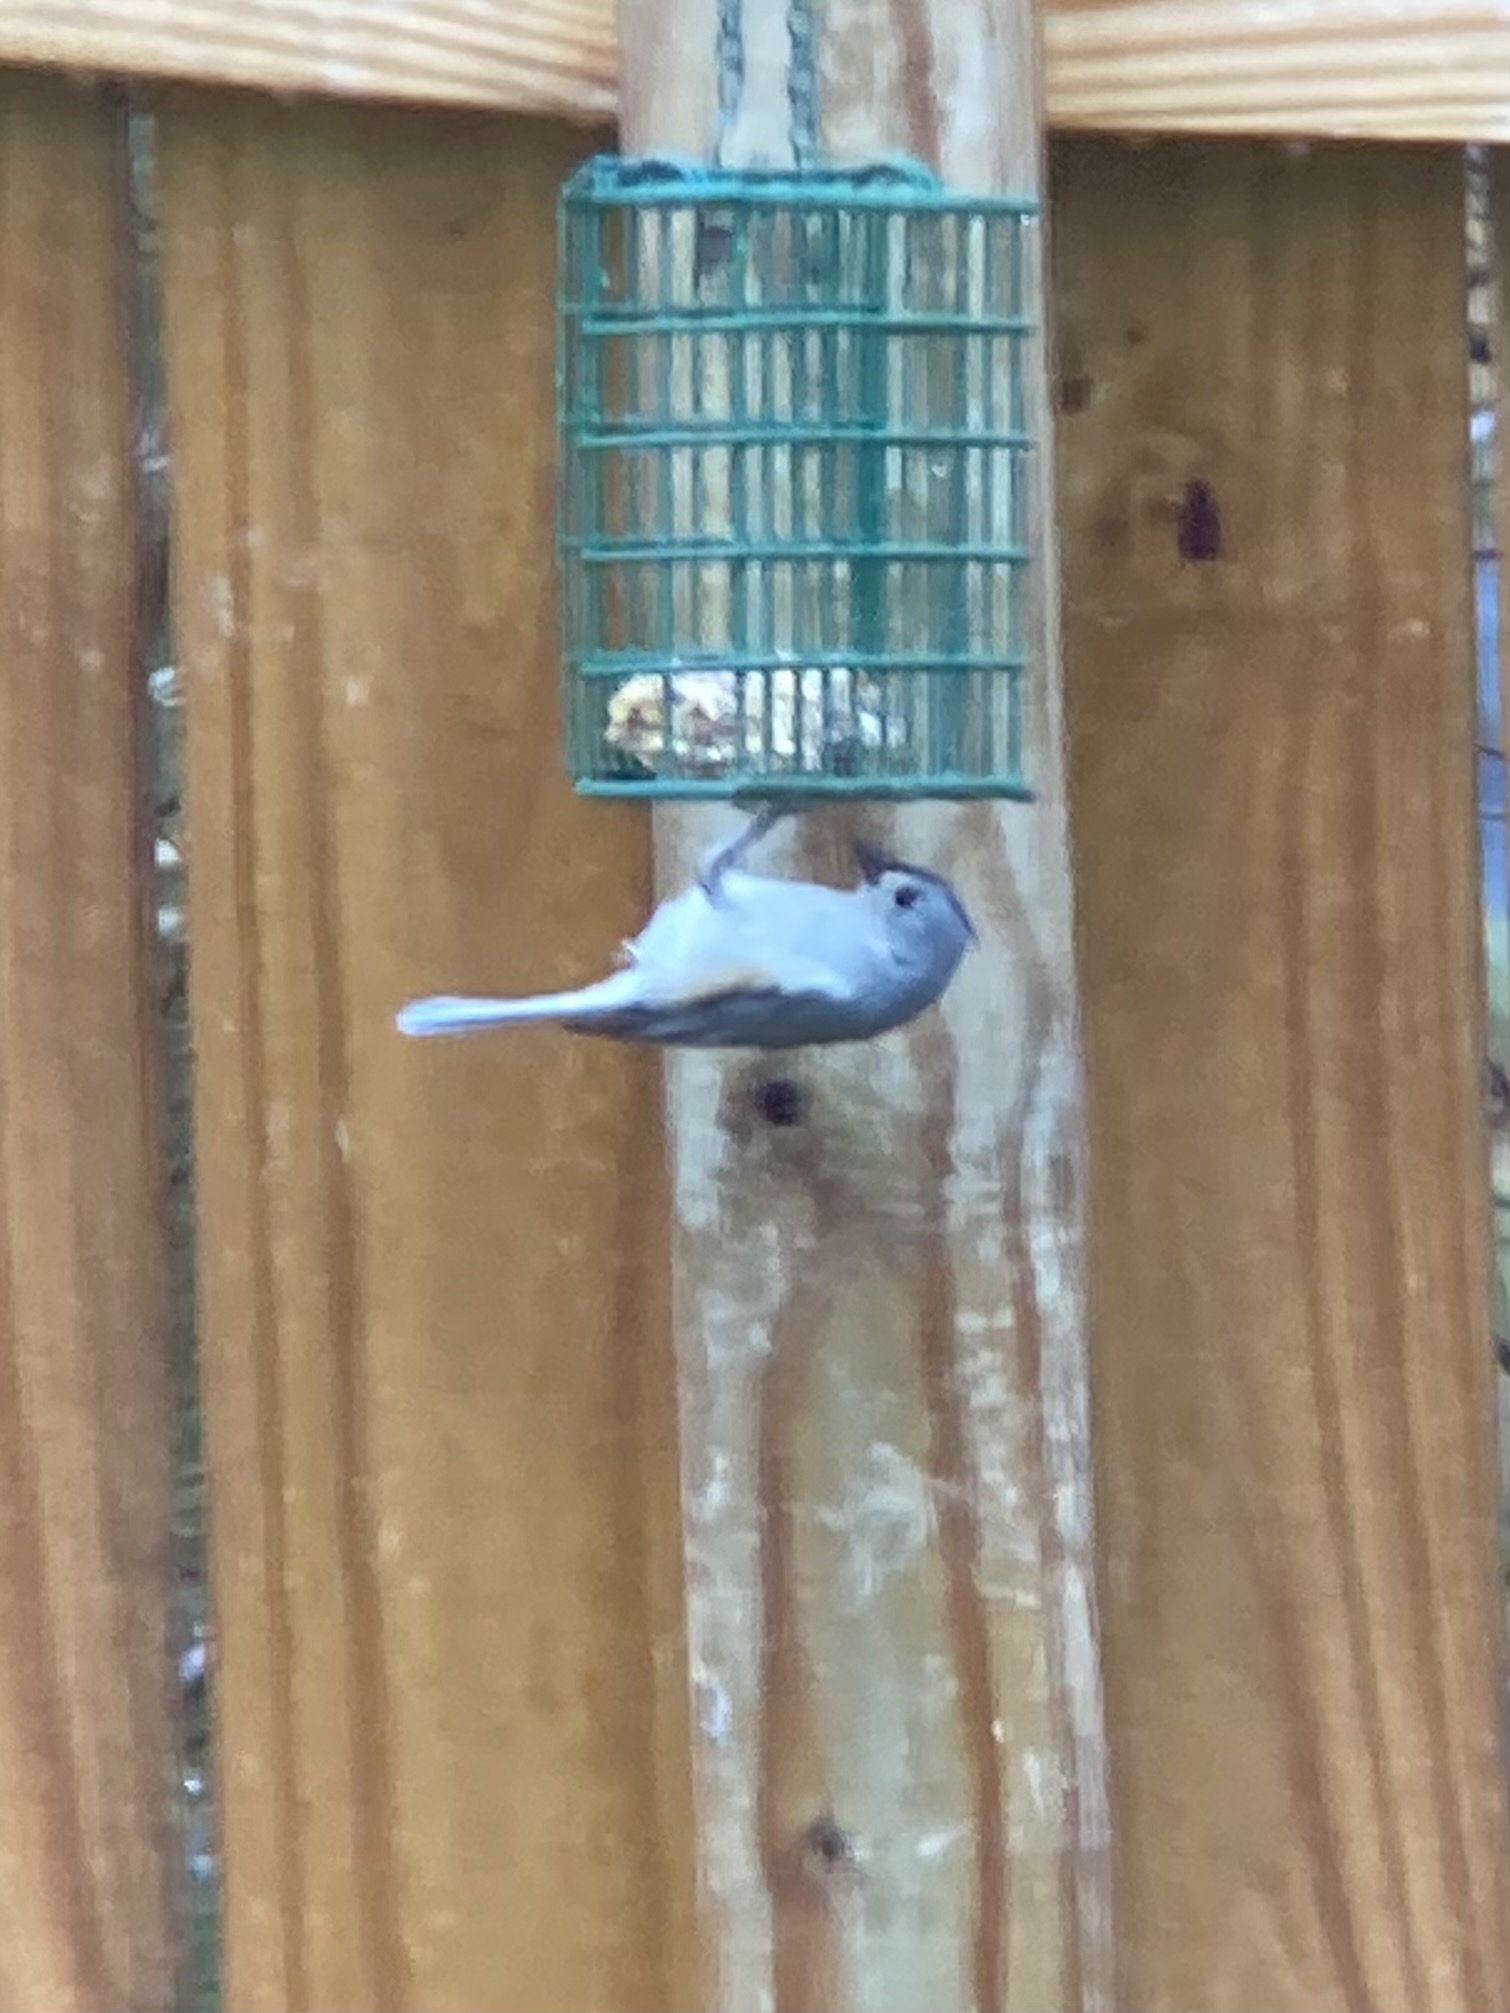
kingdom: Animalia
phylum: Chordata
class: Aves
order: Passeriformes
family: Paridae
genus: Baeolophus
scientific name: Baeolophus bicolor
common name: Tufted titmouse
